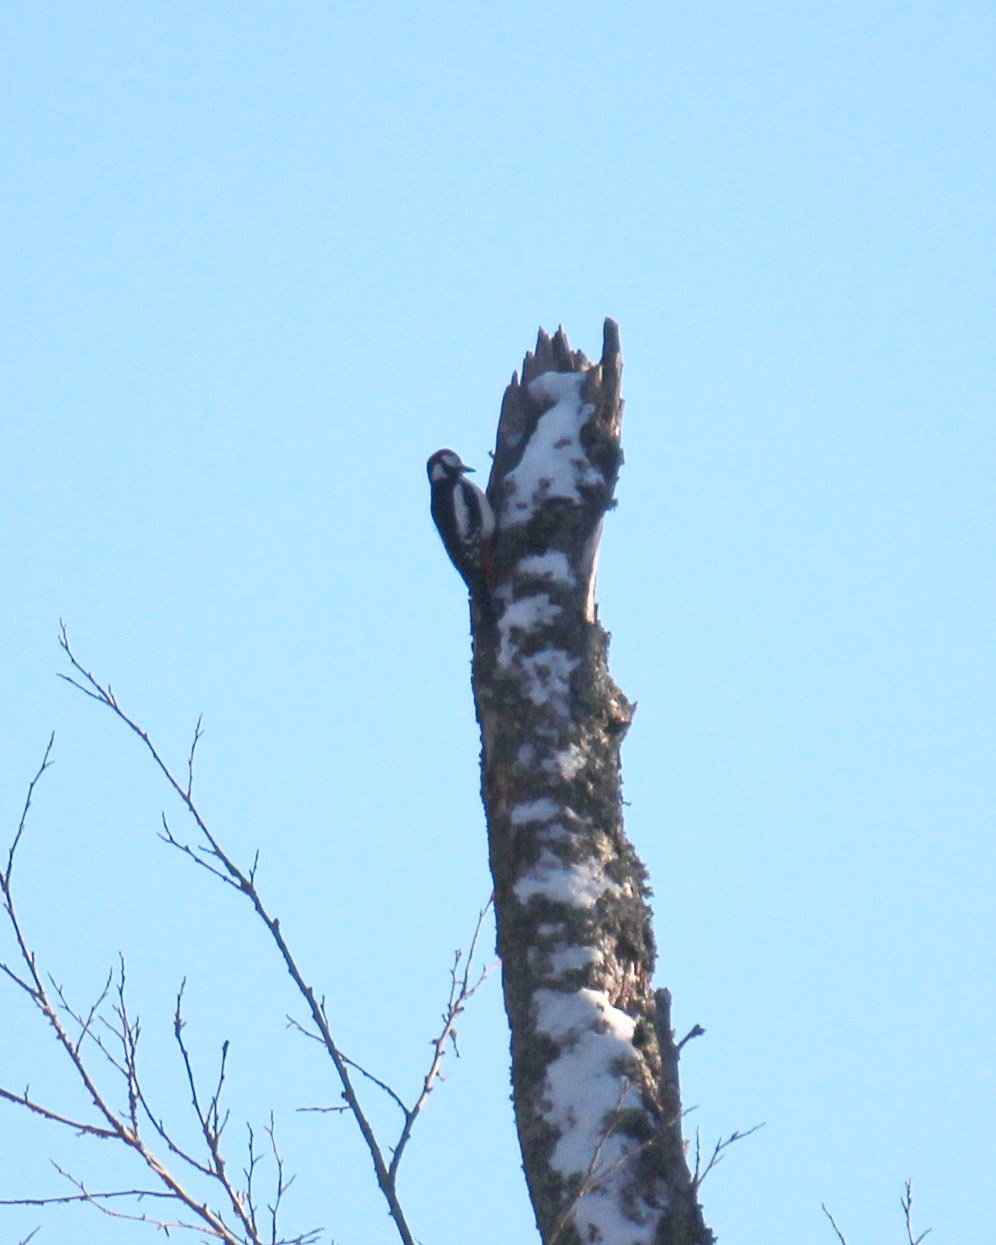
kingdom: Animalia
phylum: Chordata
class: Aves
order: Piciformes
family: Picidae
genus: Dendrocopos
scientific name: Dendrocopos major
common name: Great spotted woodpecker
